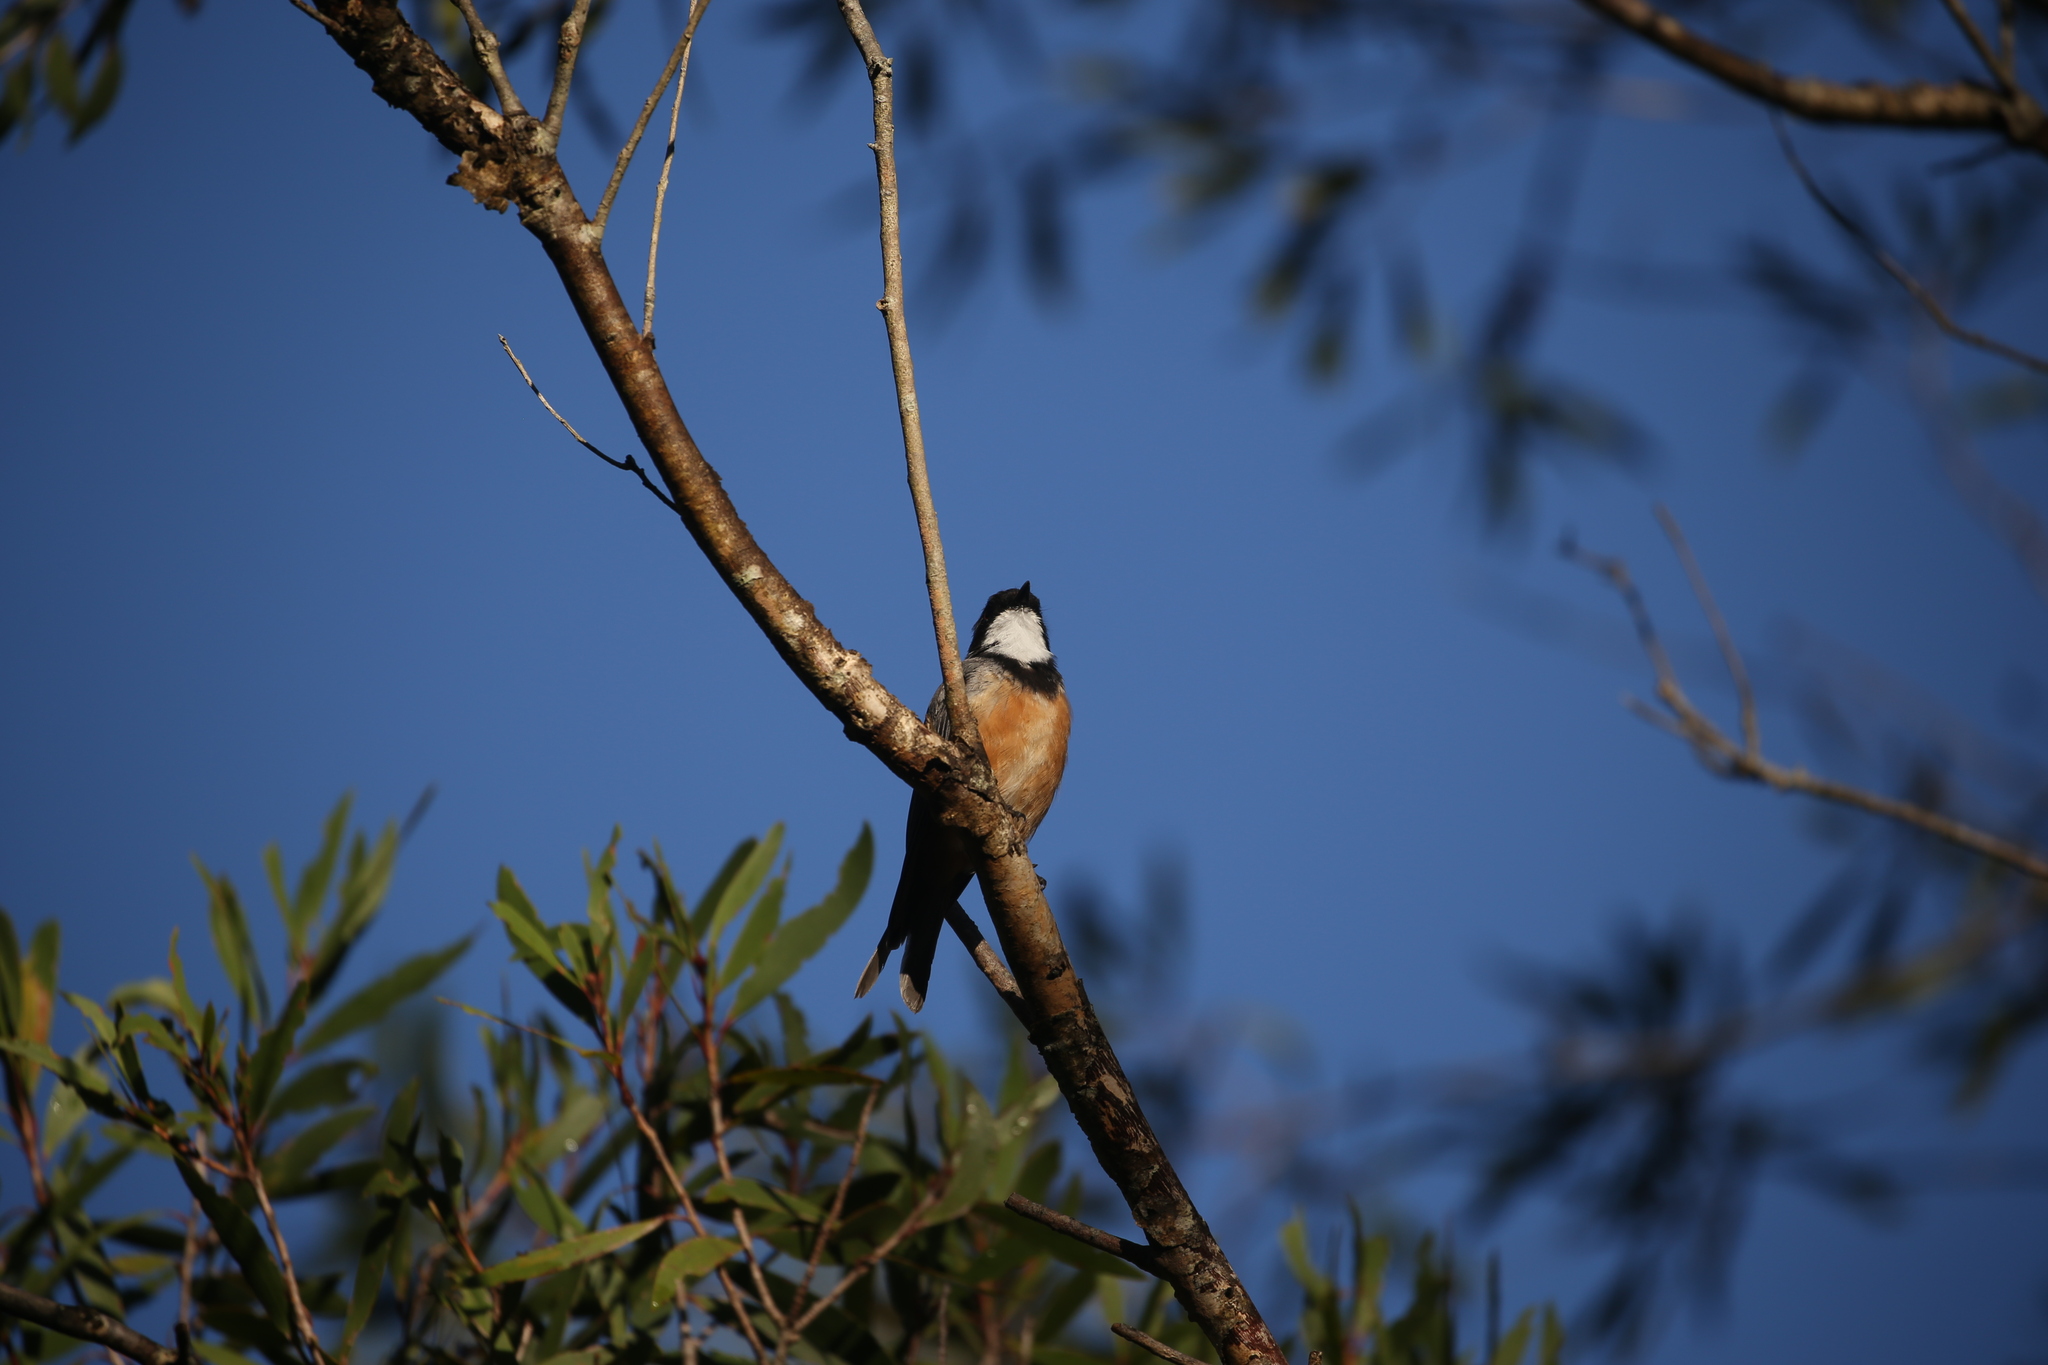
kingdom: Animalia
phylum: Chordata
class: Aves
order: Passeriformes
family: Pachycephalidae
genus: Pachycephala
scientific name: Pachycephala rufiventris
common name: Rufous whistler
